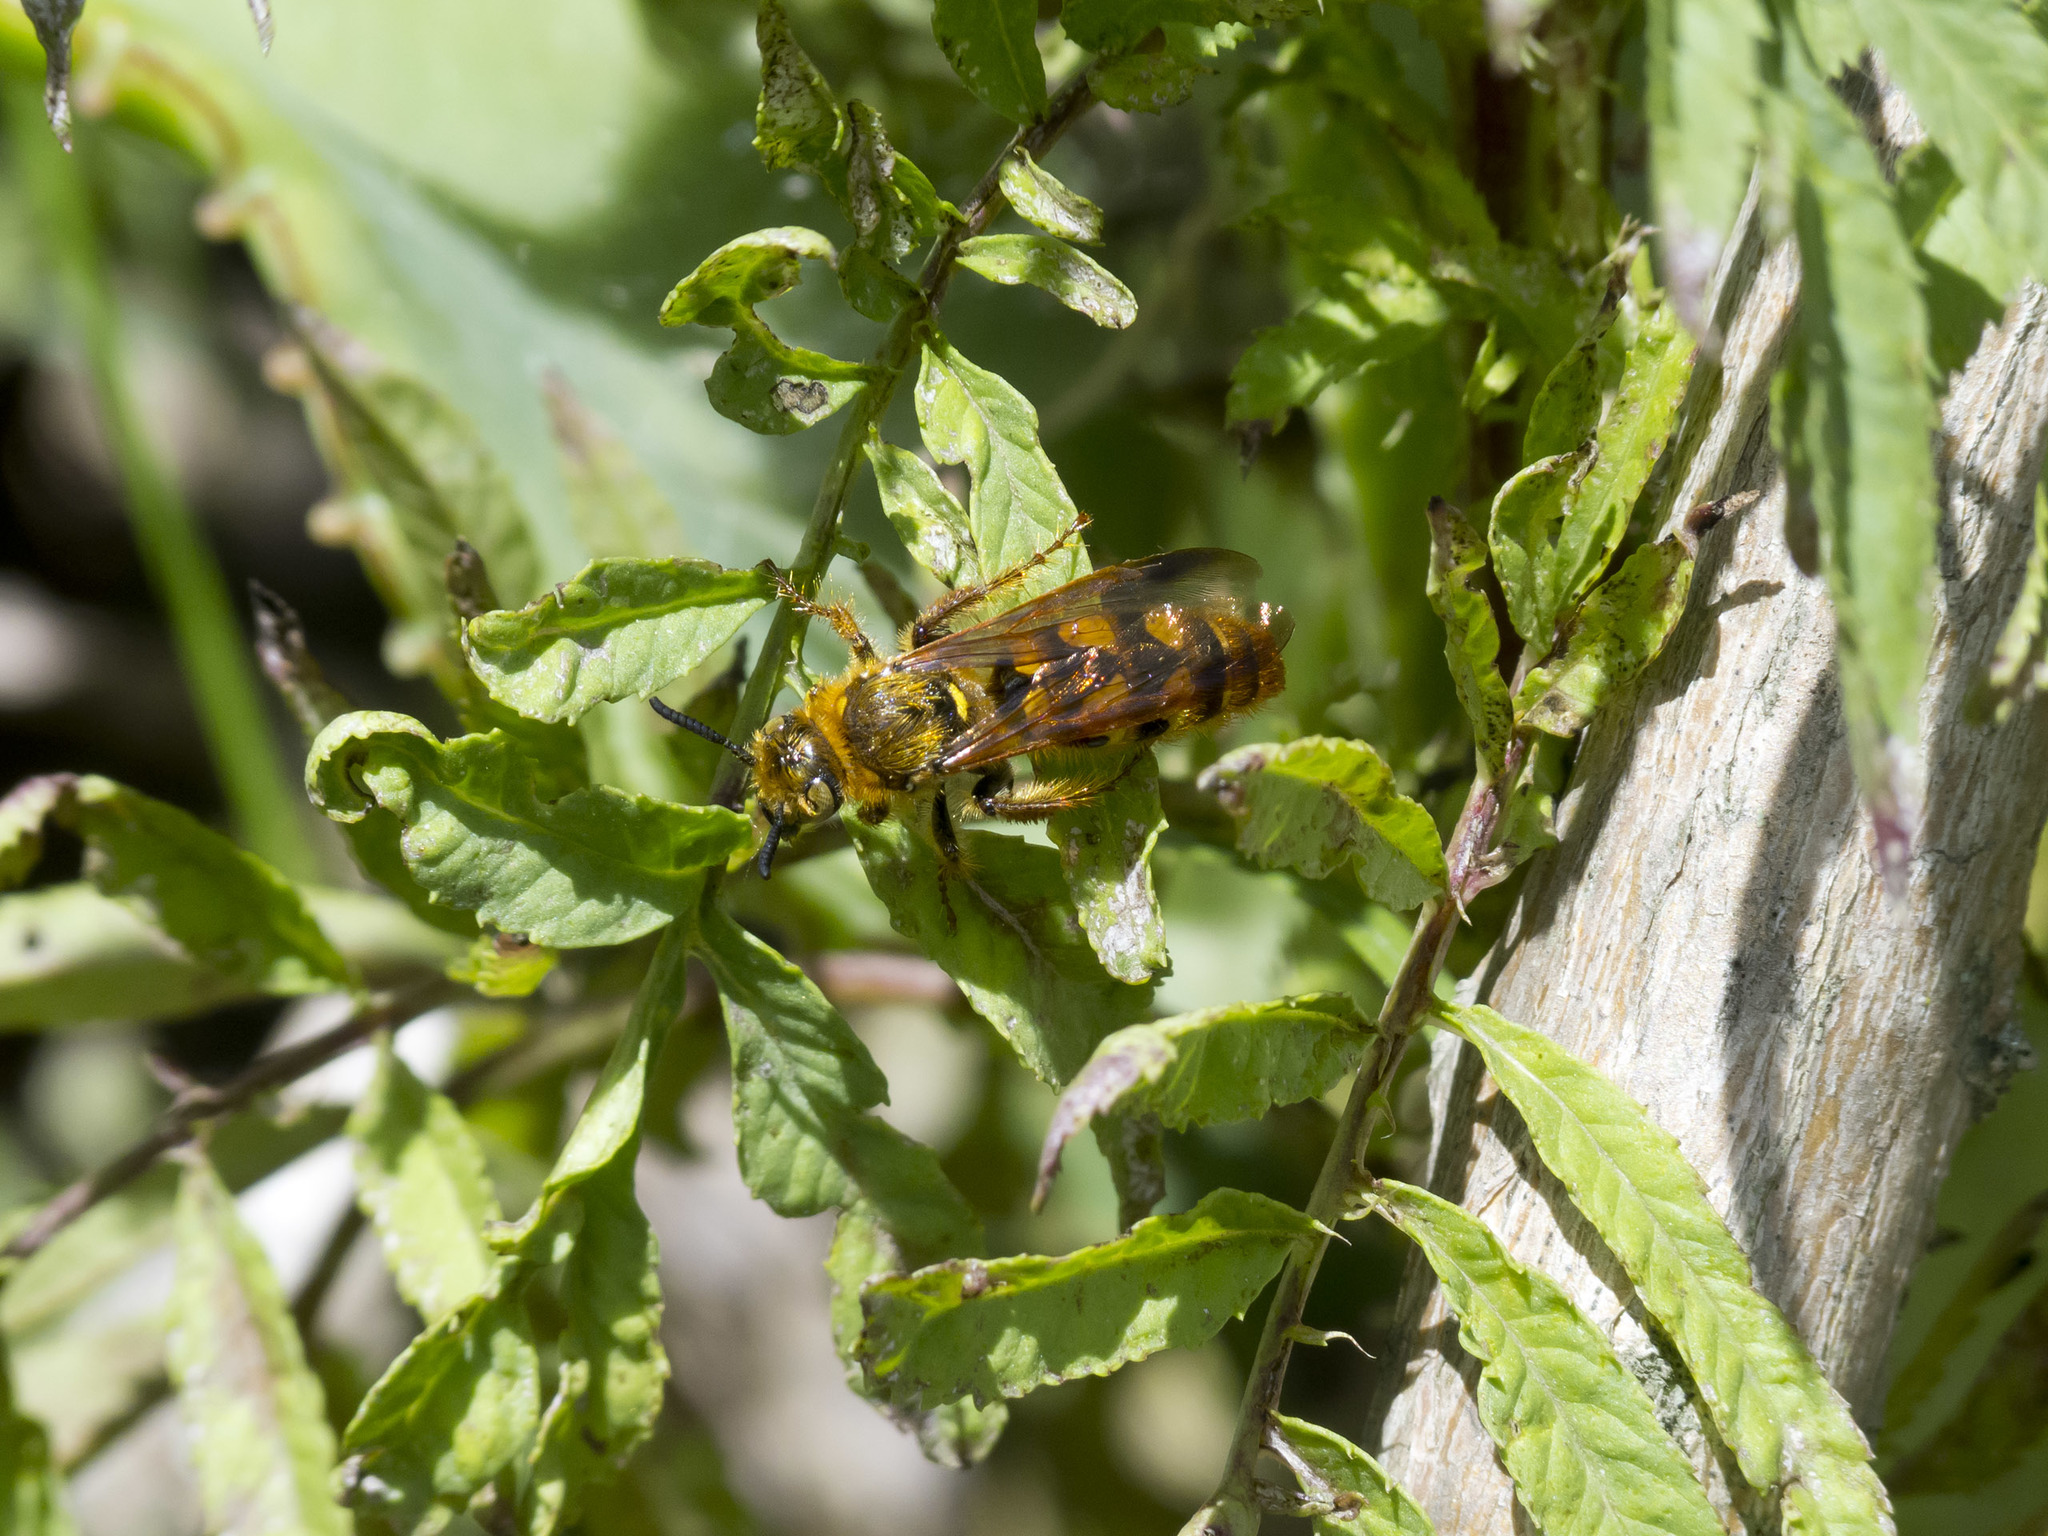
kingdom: Animalia
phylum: Arthropoda
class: Insecta
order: Hymenoptera
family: Scoliidae
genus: Xanthocampsomeris
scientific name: Xanthocampsomeris hesterae
